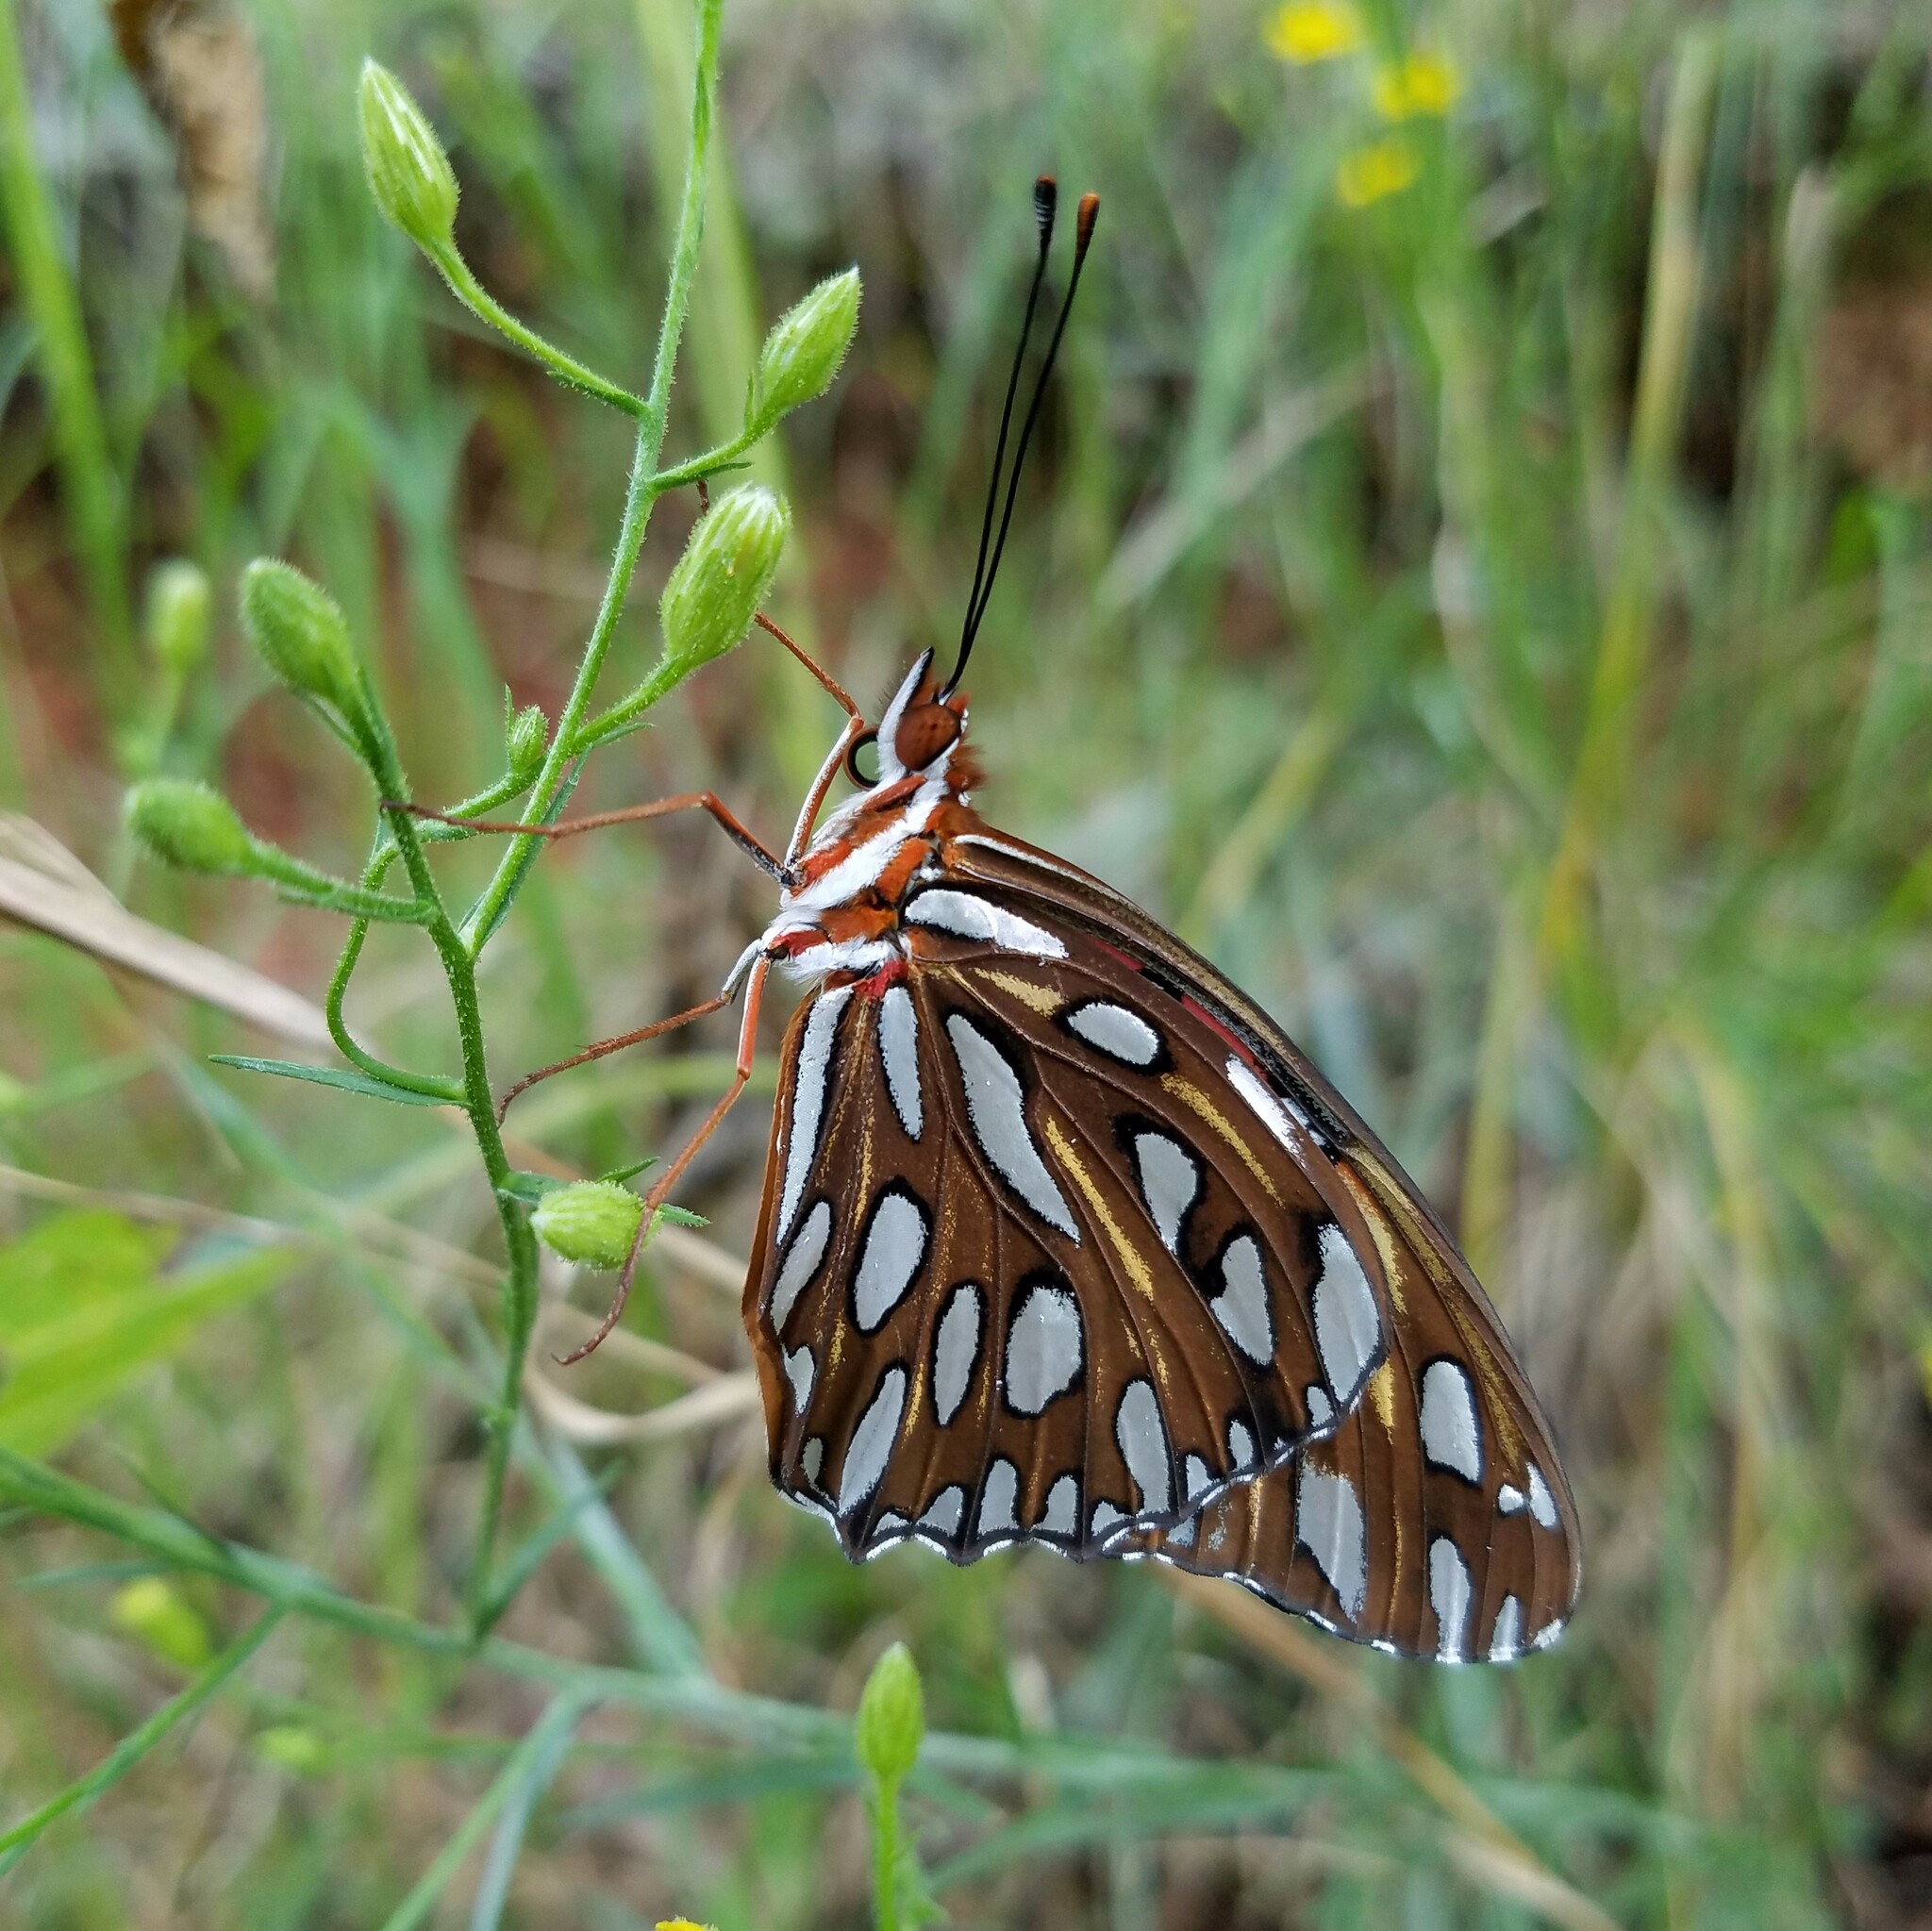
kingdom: Animalia
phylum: Arthropoda
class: Insecta
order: Lepidoptera
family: Nymphalidae
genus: Dione
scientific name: Dione vanillae
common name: Gulf fritillary
